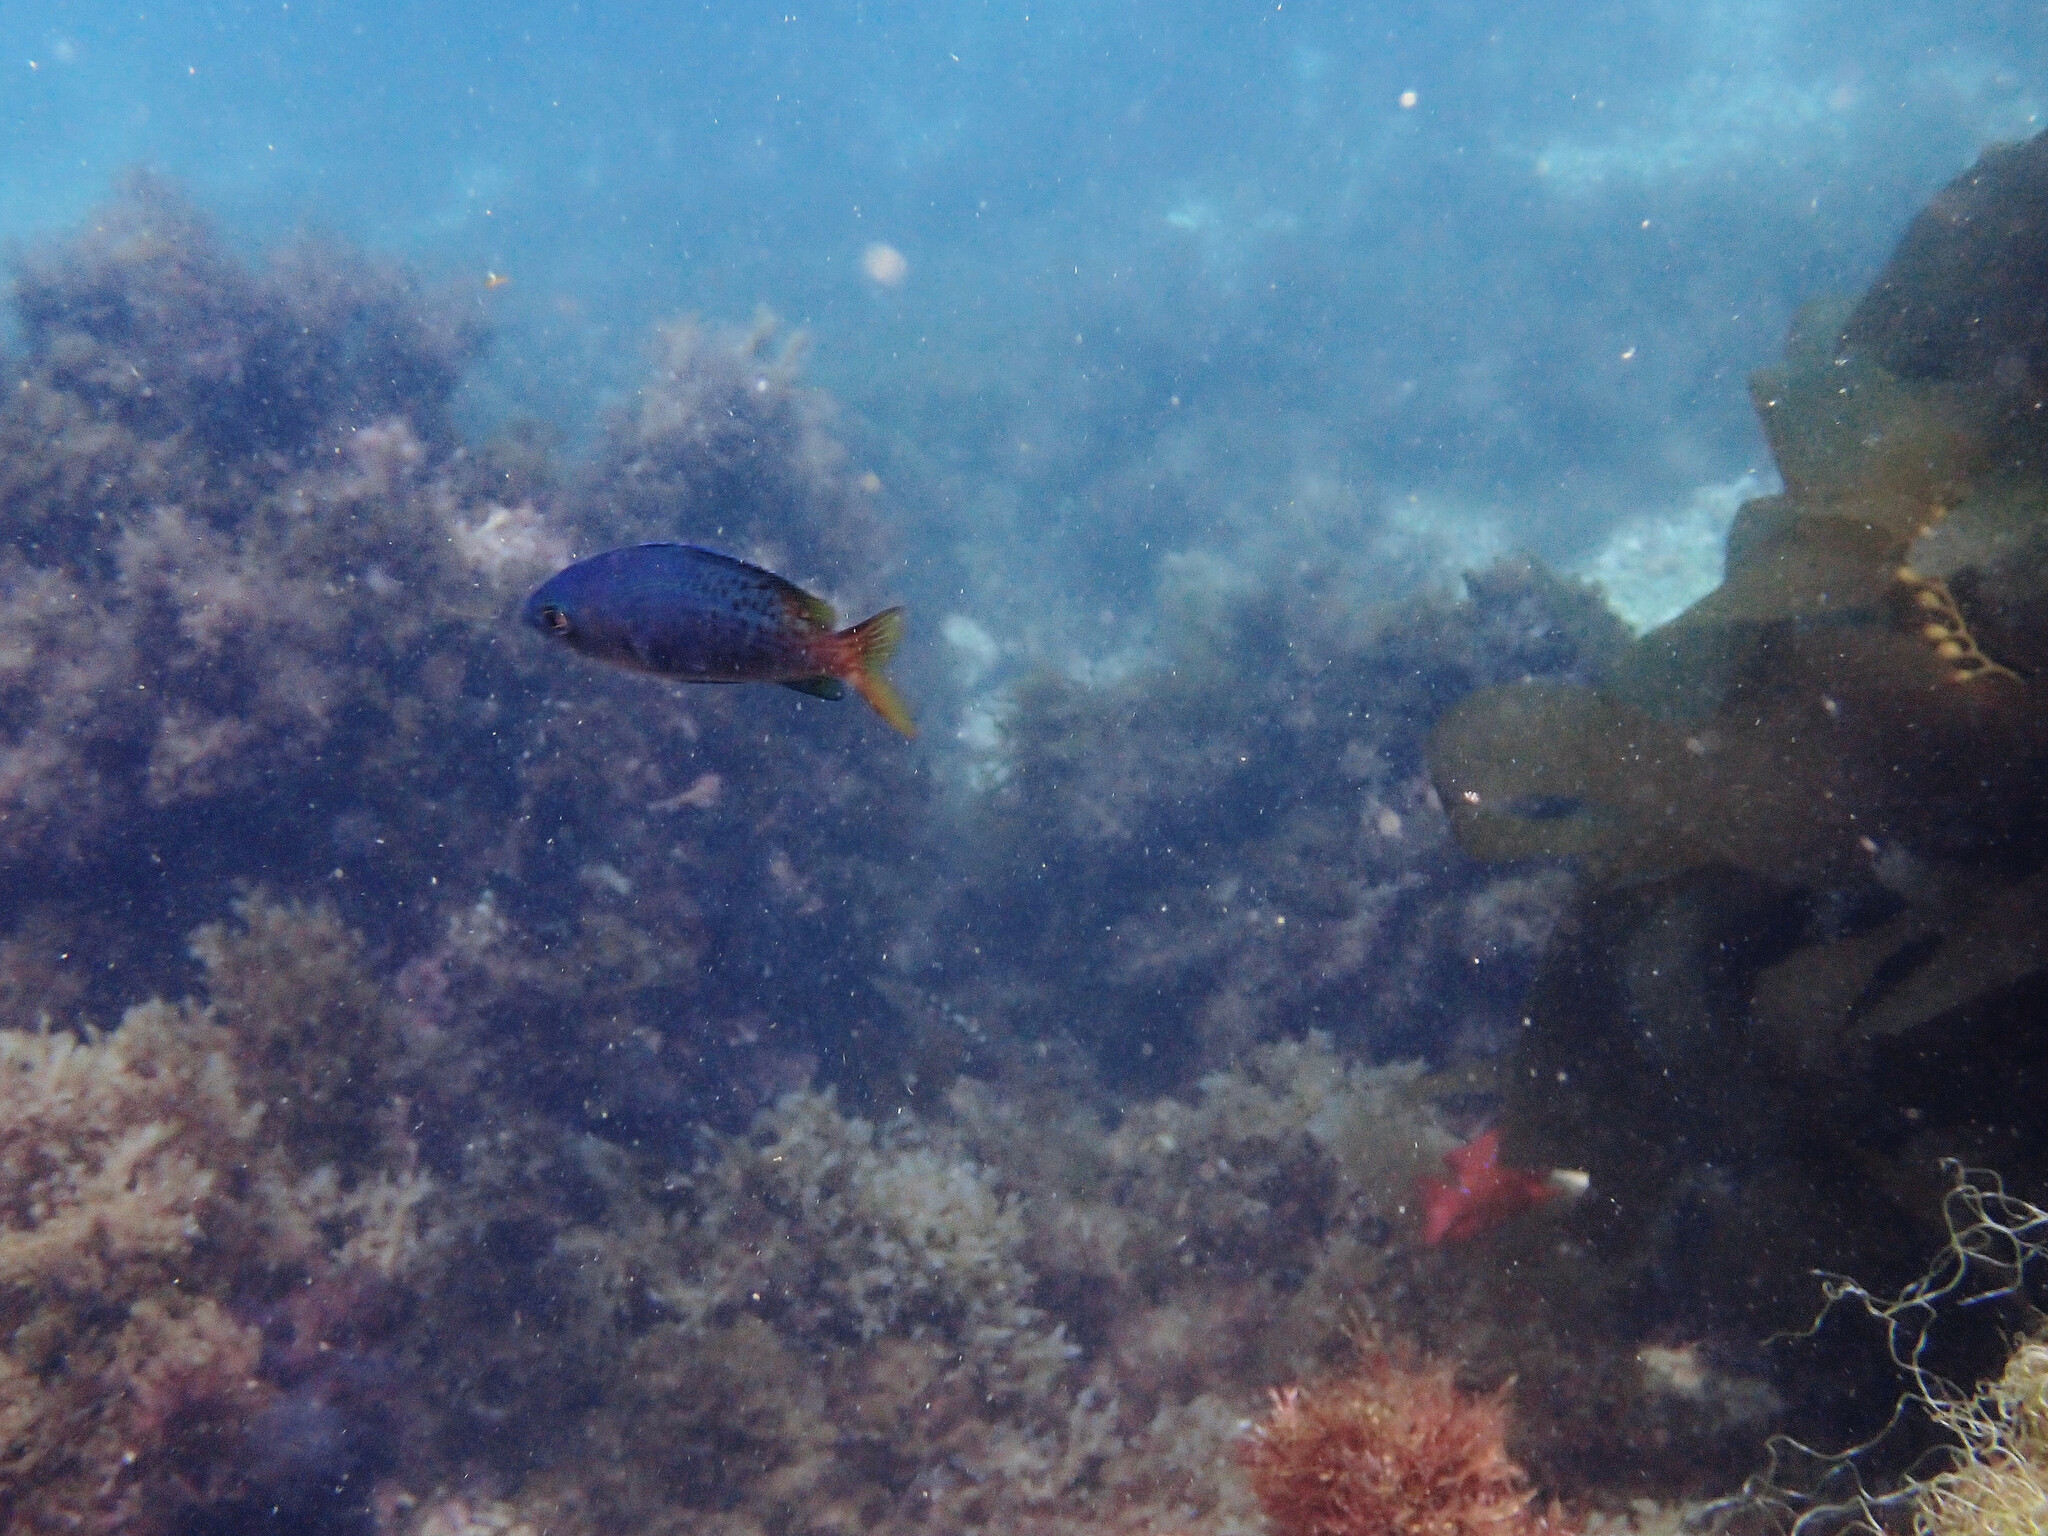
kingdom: Animalia
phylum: Chordata
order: Perciformes
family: Pomacentridae
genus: Chromis
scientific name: Chromis punctipinnis
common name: Blacksmith
